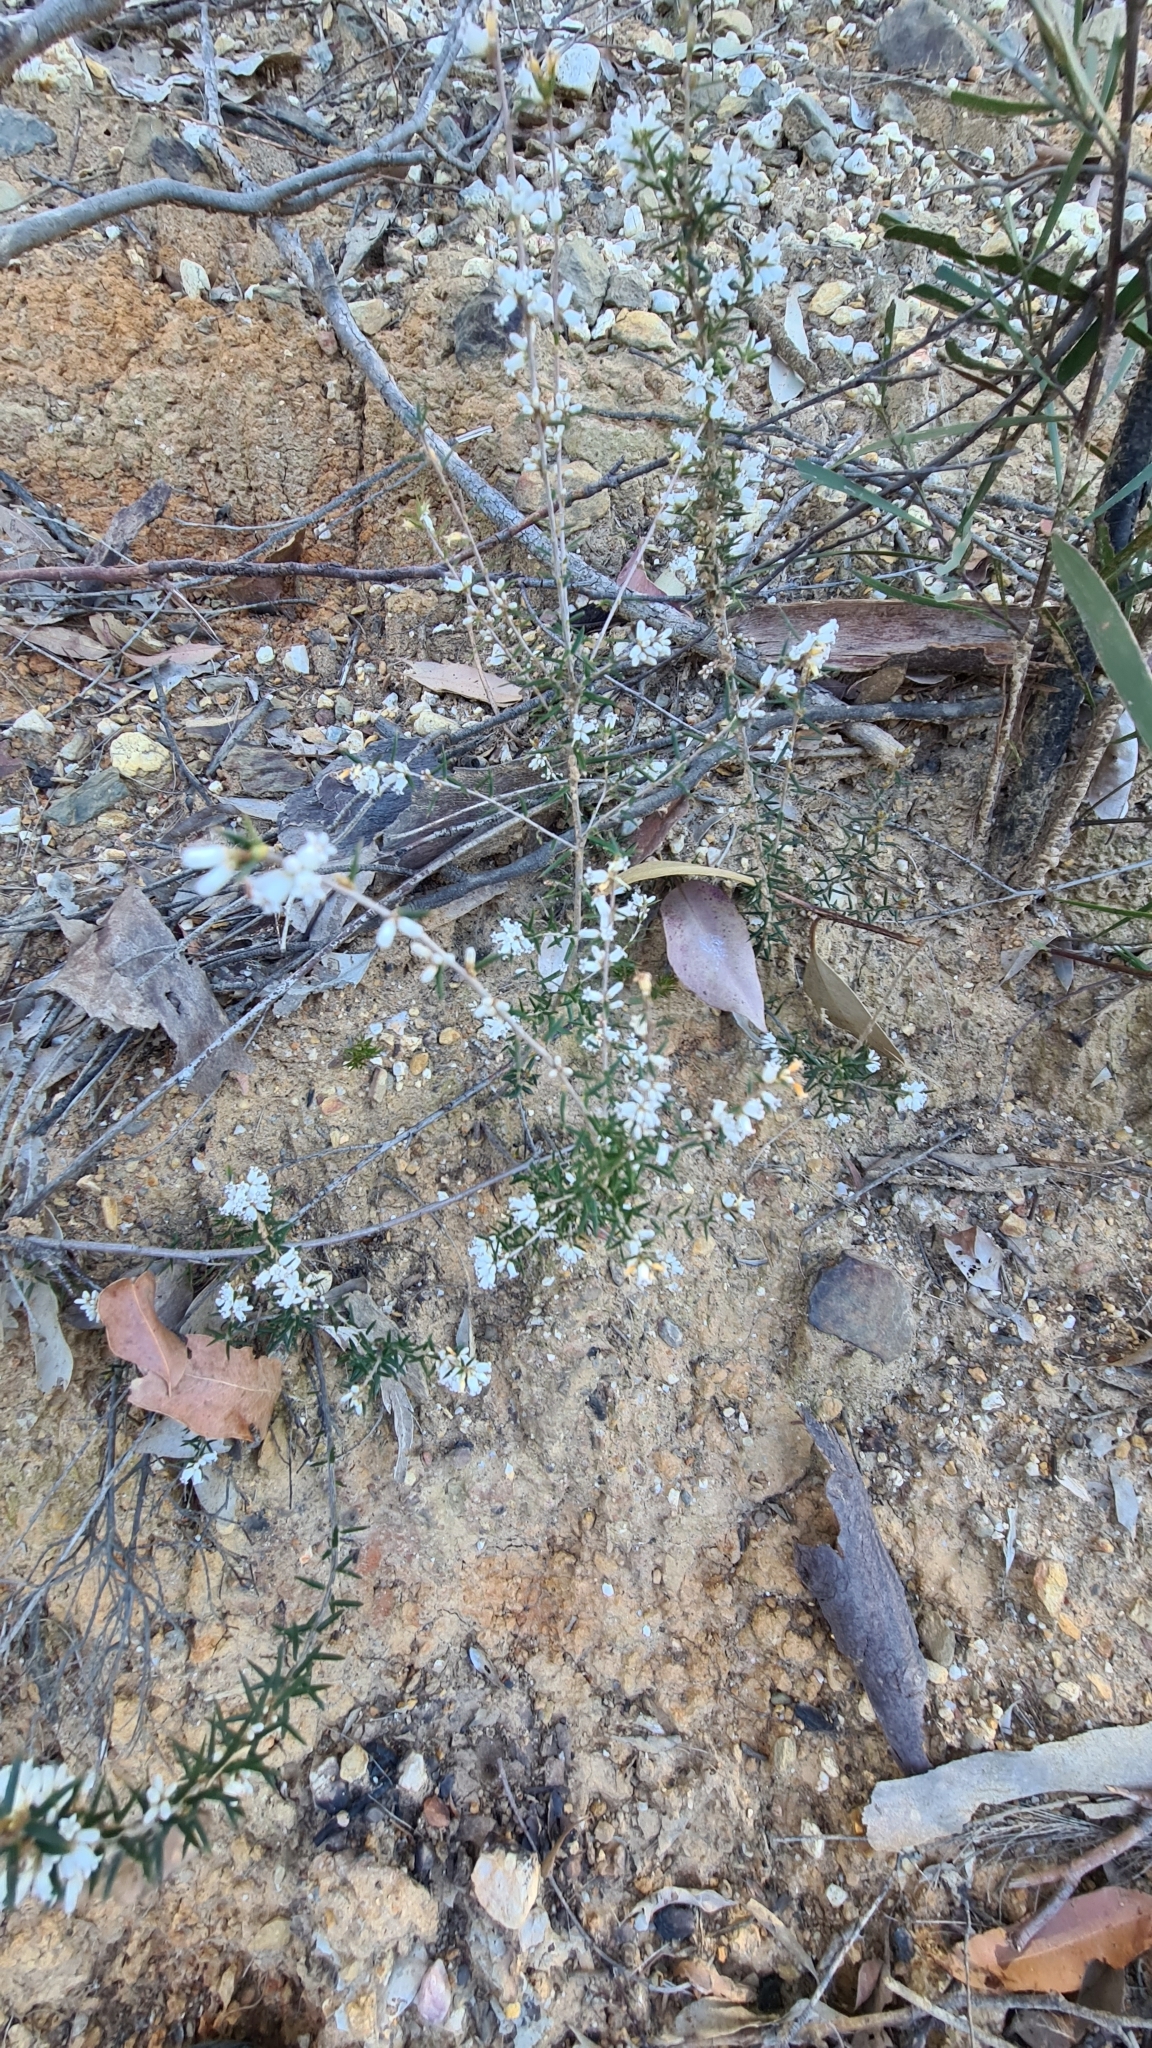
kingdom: Plantae
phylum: Tracheophyta
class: Magnoliopsida
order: Ericales
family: Ericaceae
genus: Lissanthe
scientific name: Lissanthe strigosa
